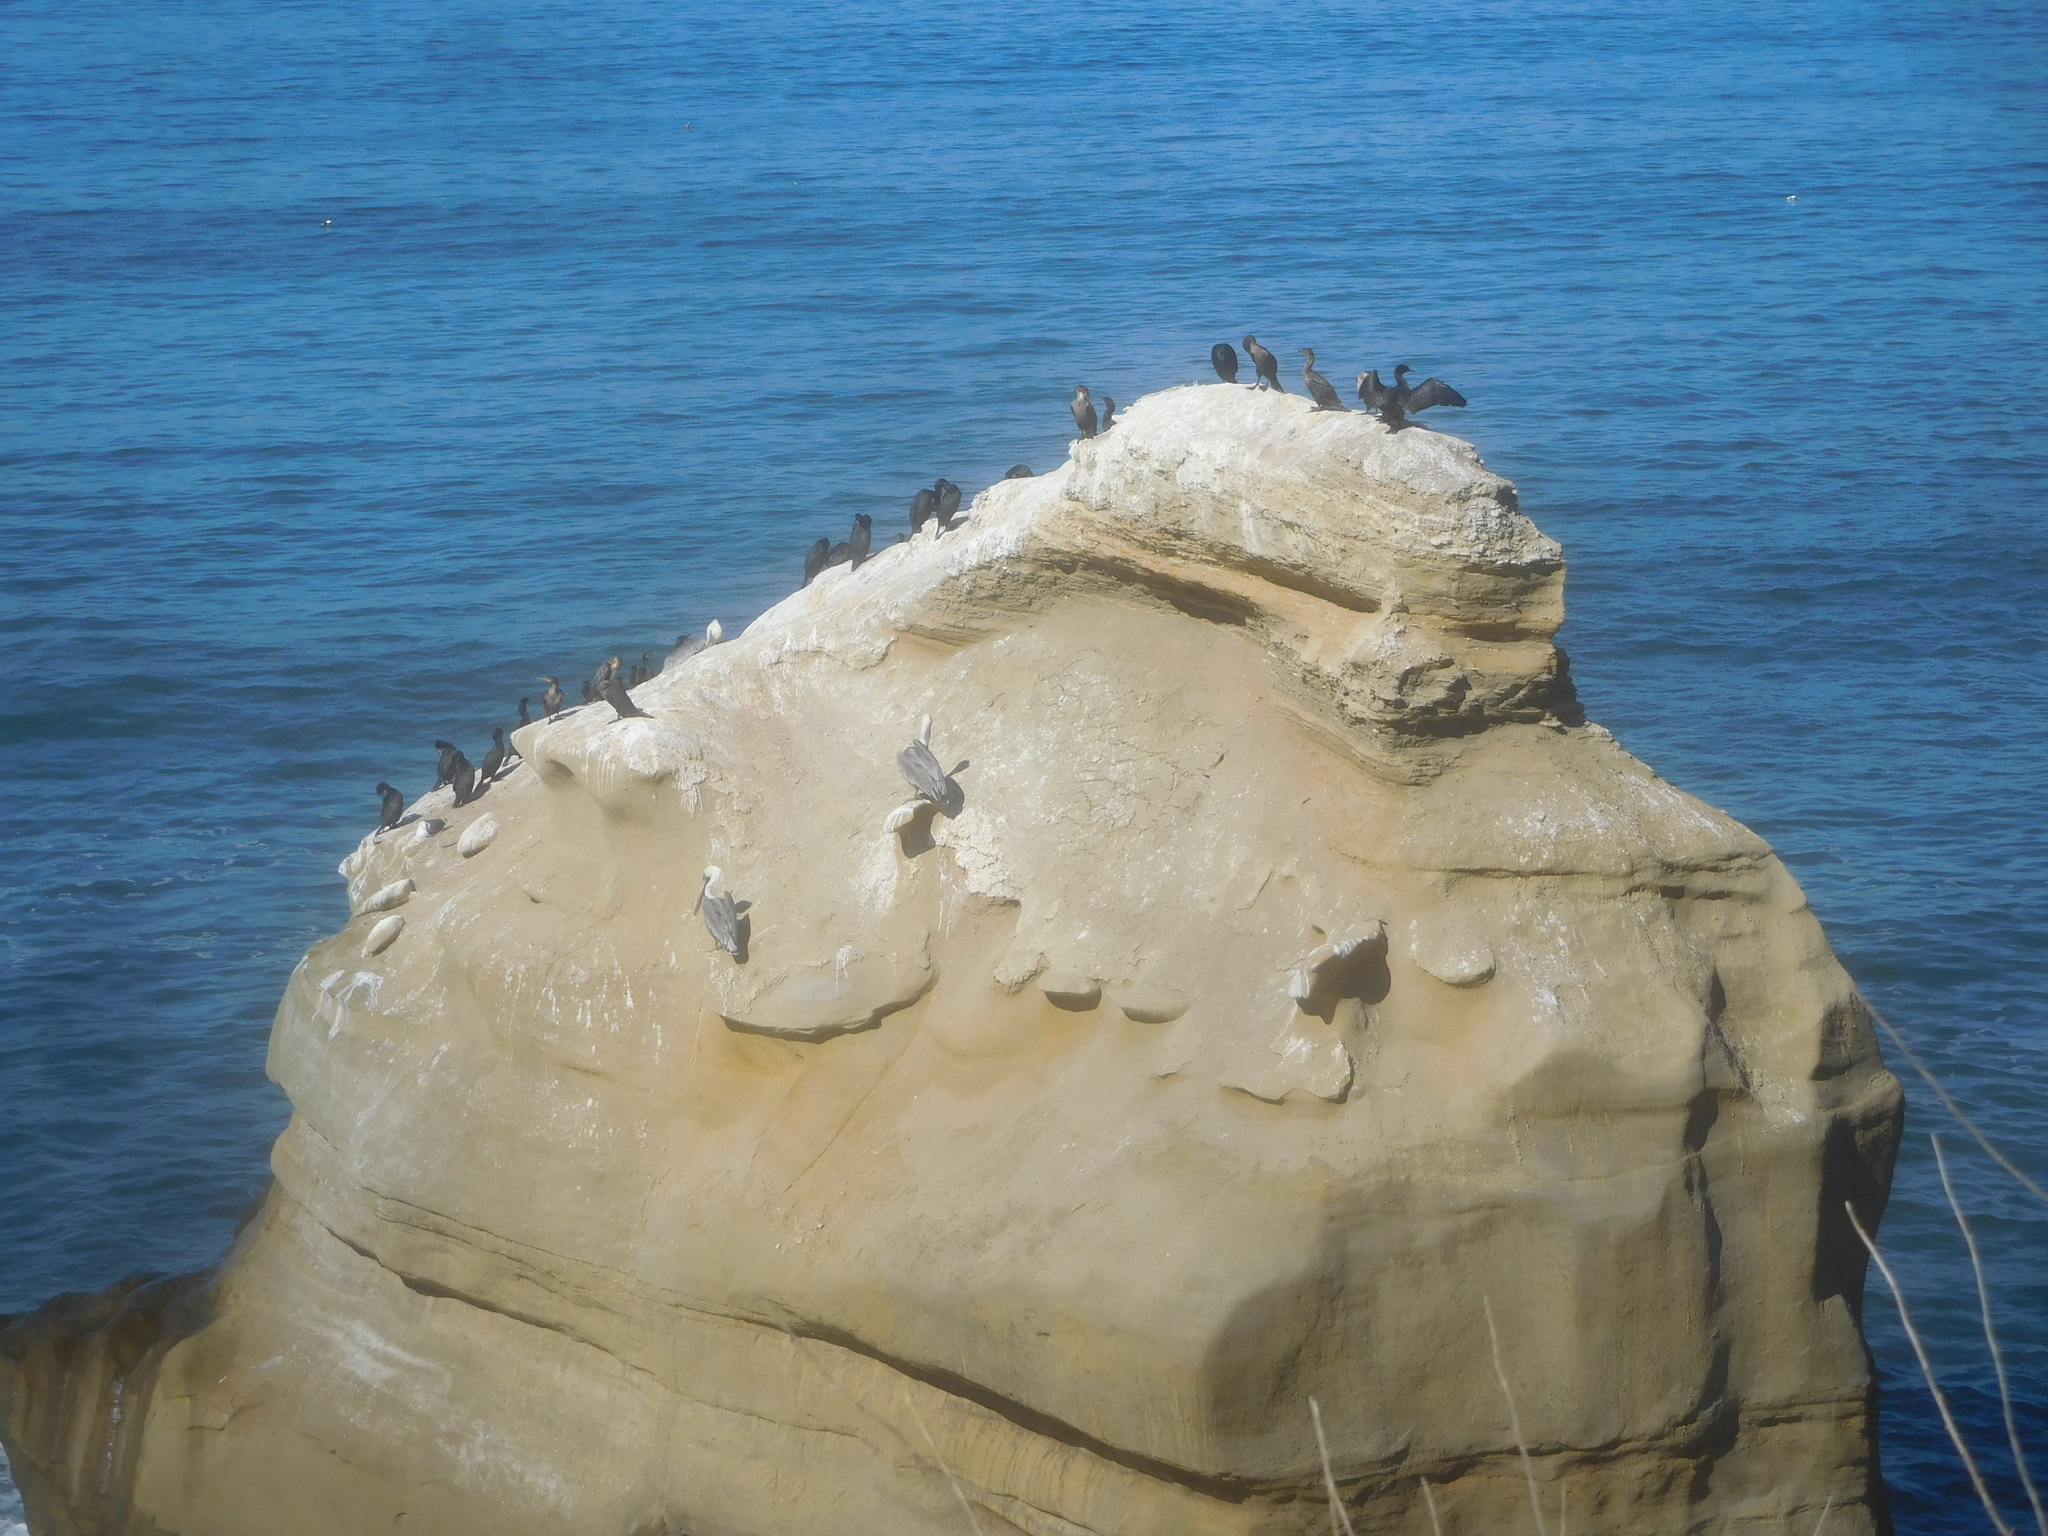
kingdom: Animalia
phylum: Chordata
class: Aves
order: Pelecaniformes
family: Pelecanidae
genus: Pelecanus
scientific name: Pelecanus occidentalis
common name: Brown pelican
